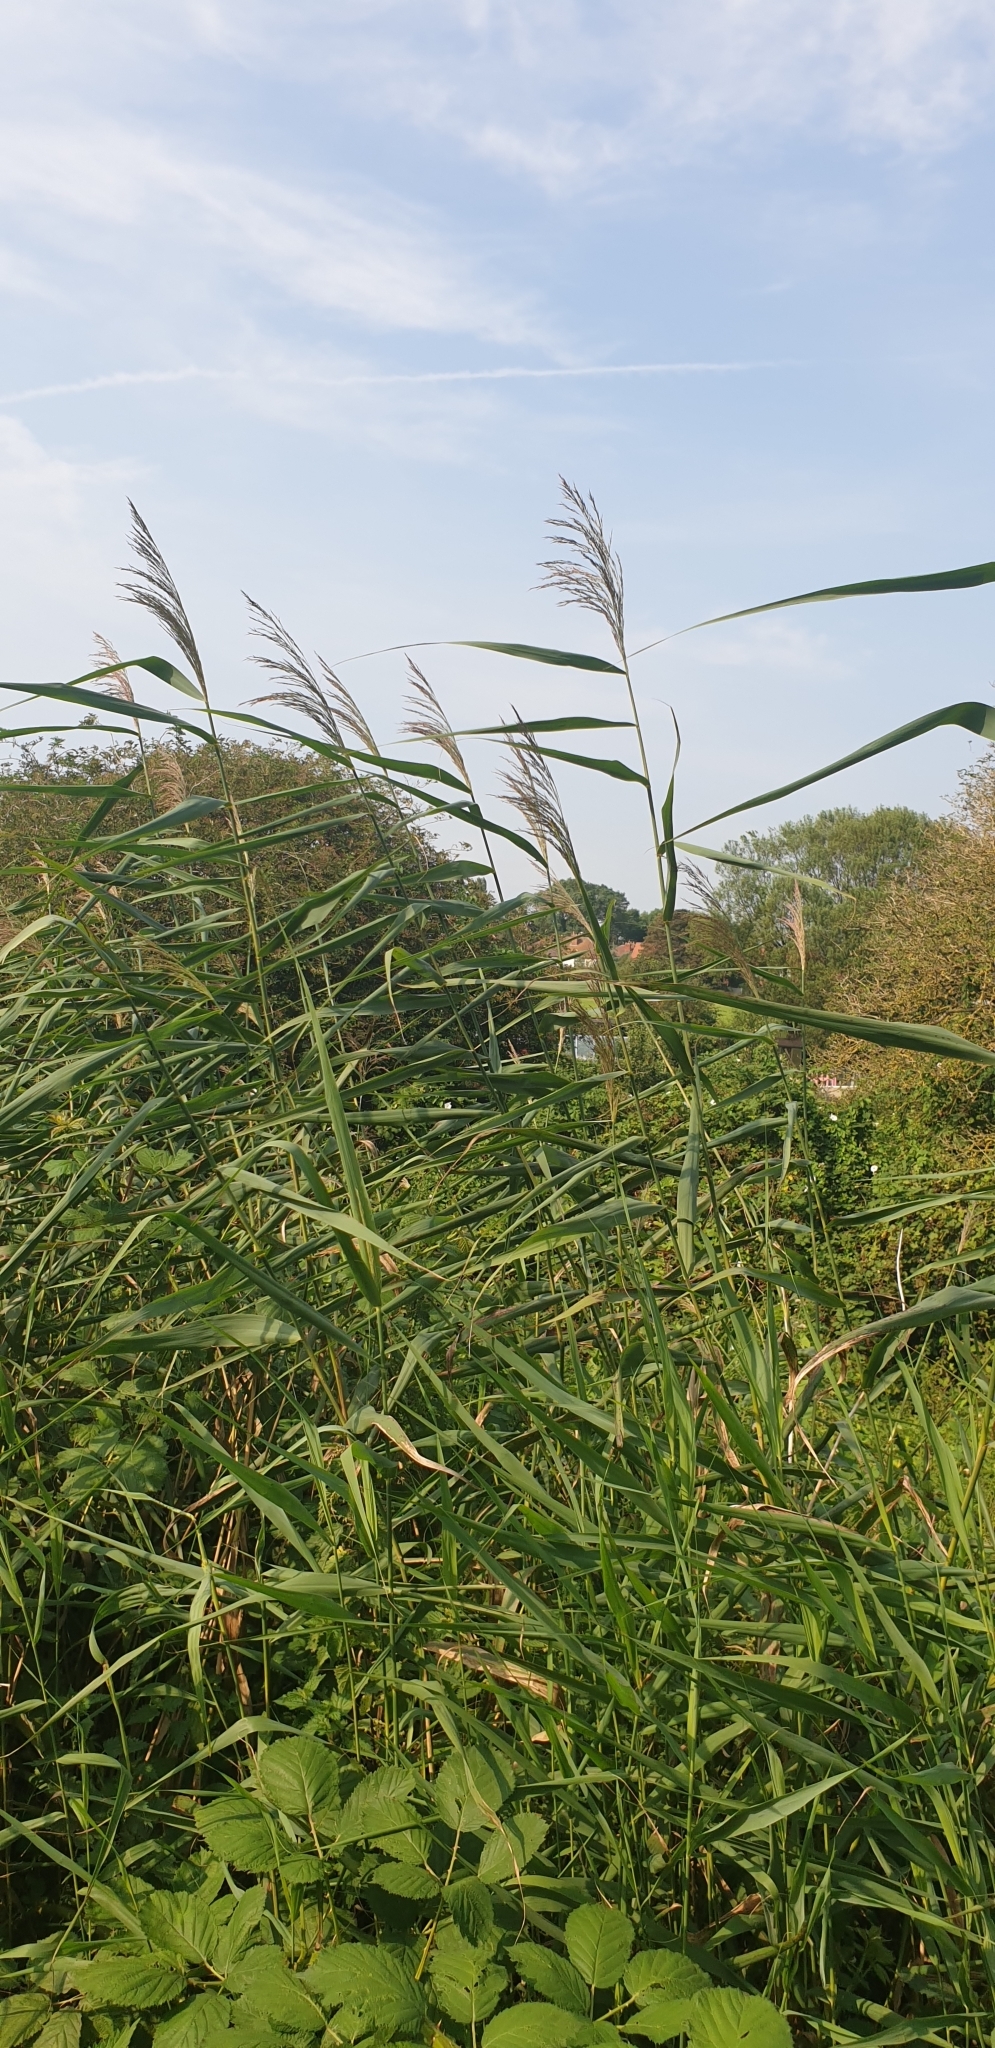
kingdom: Plantae
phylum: Tracheophyta
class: Liliopsida
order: Poales
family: Poaceae
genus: Phragmites
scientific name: Phragmites australis
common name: Common reed
